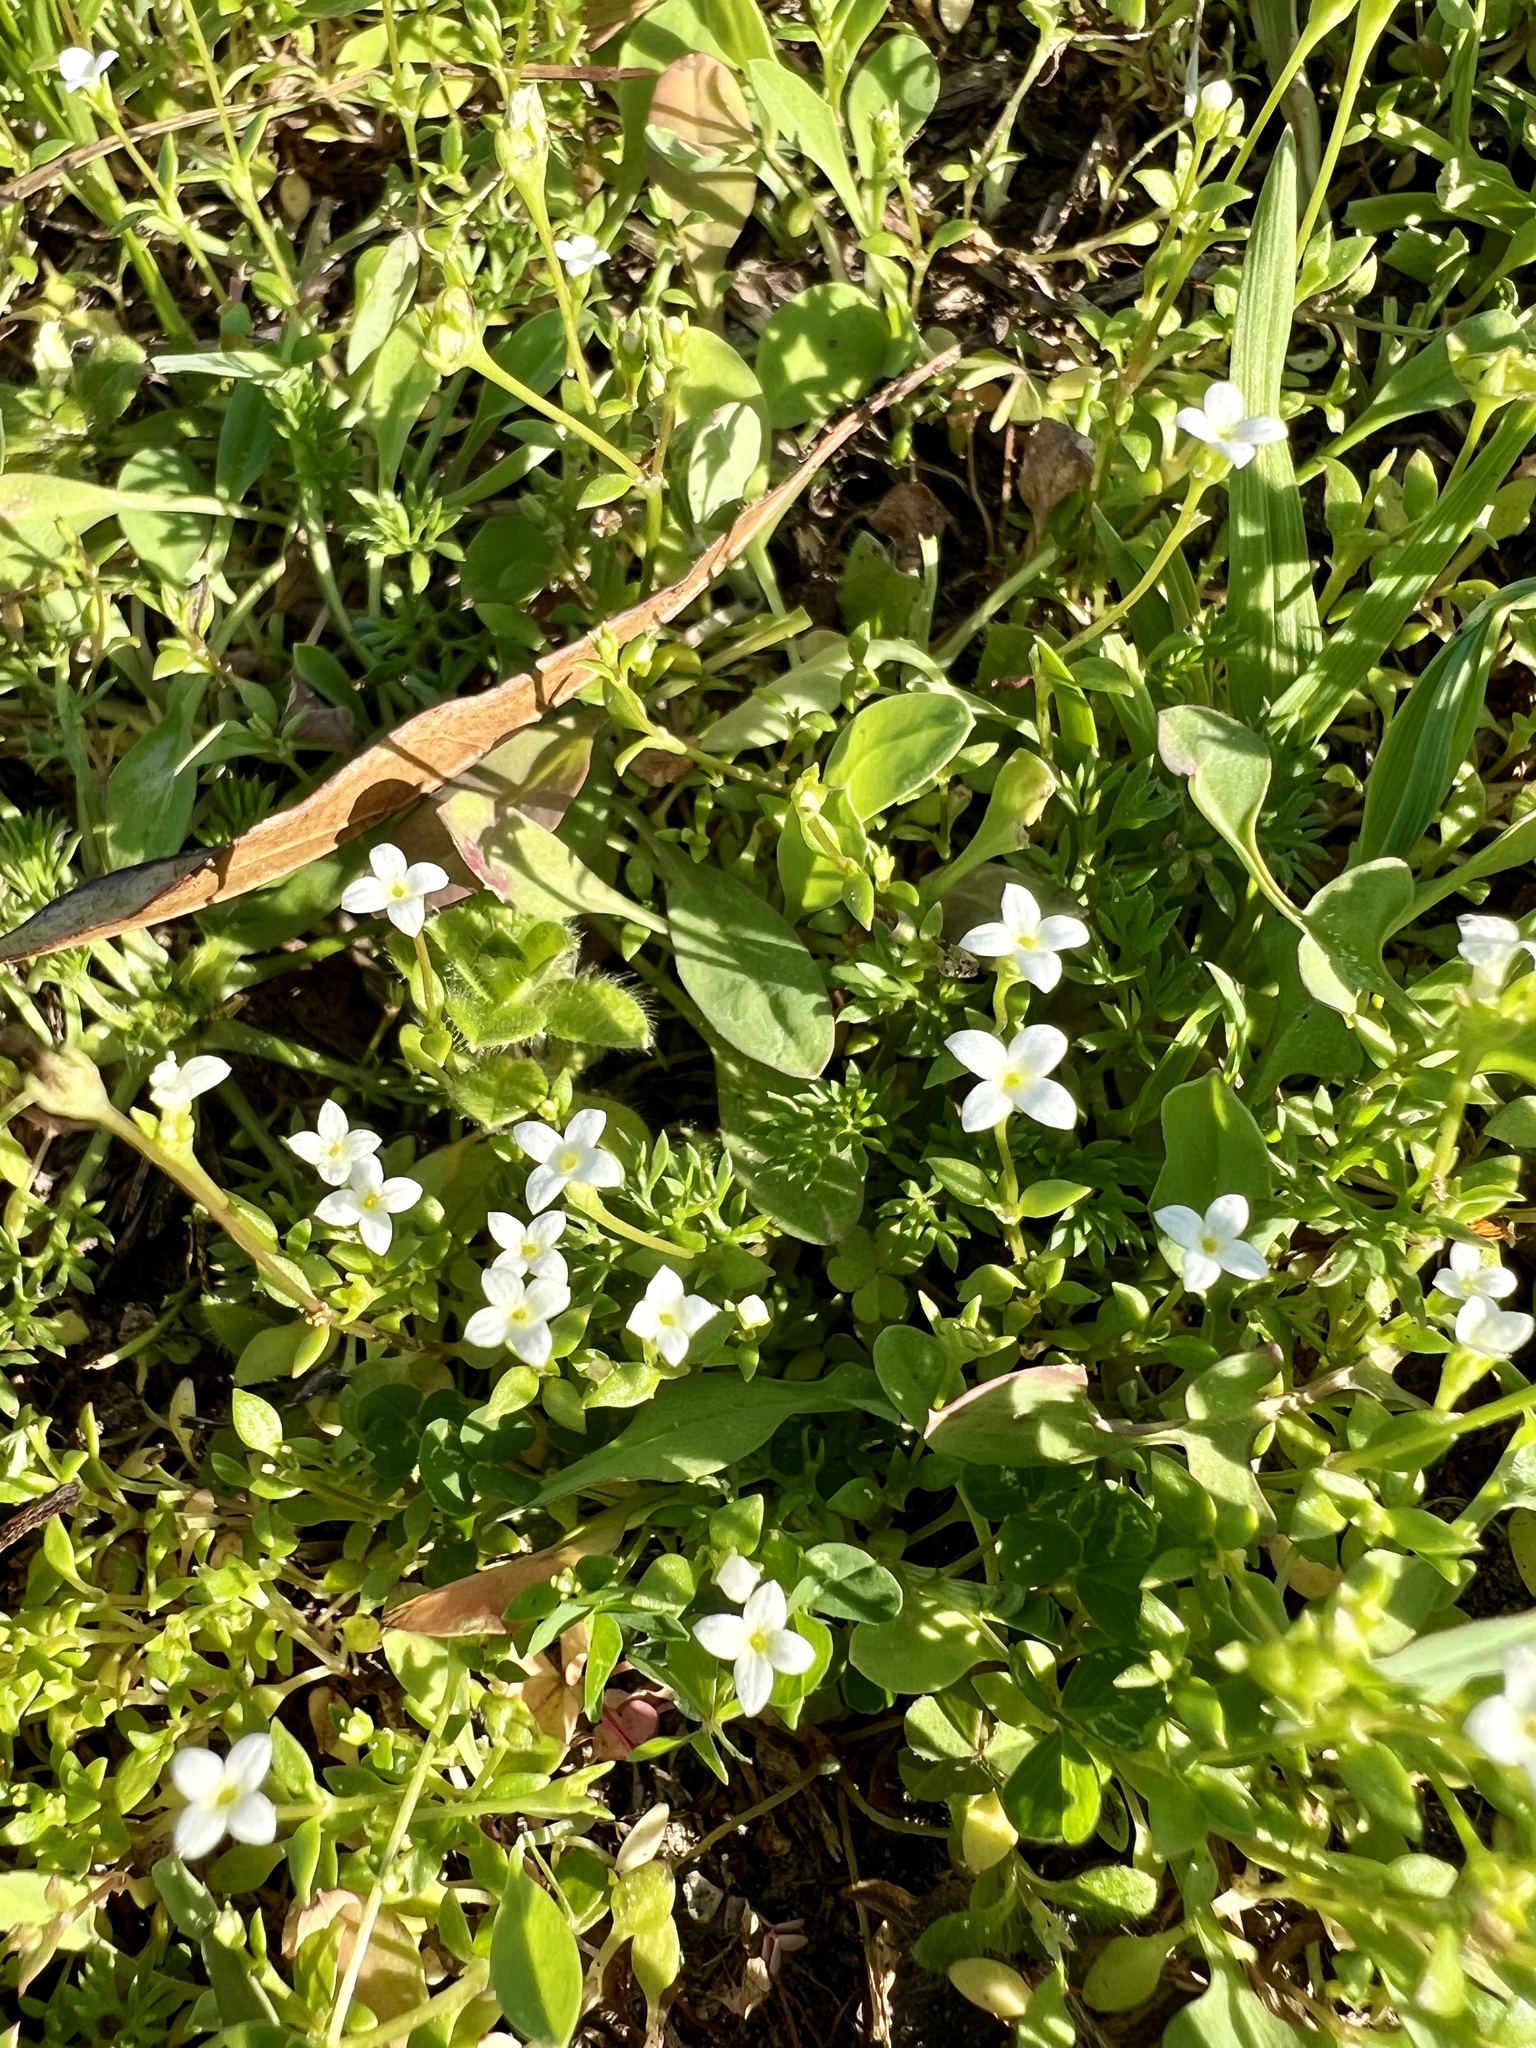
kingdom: Plantae
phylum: Tracheophyta
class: Magnoliopsida
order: Gentianales
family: Rubiaceae
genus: Houstonia
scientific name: Houstonia micrantha
